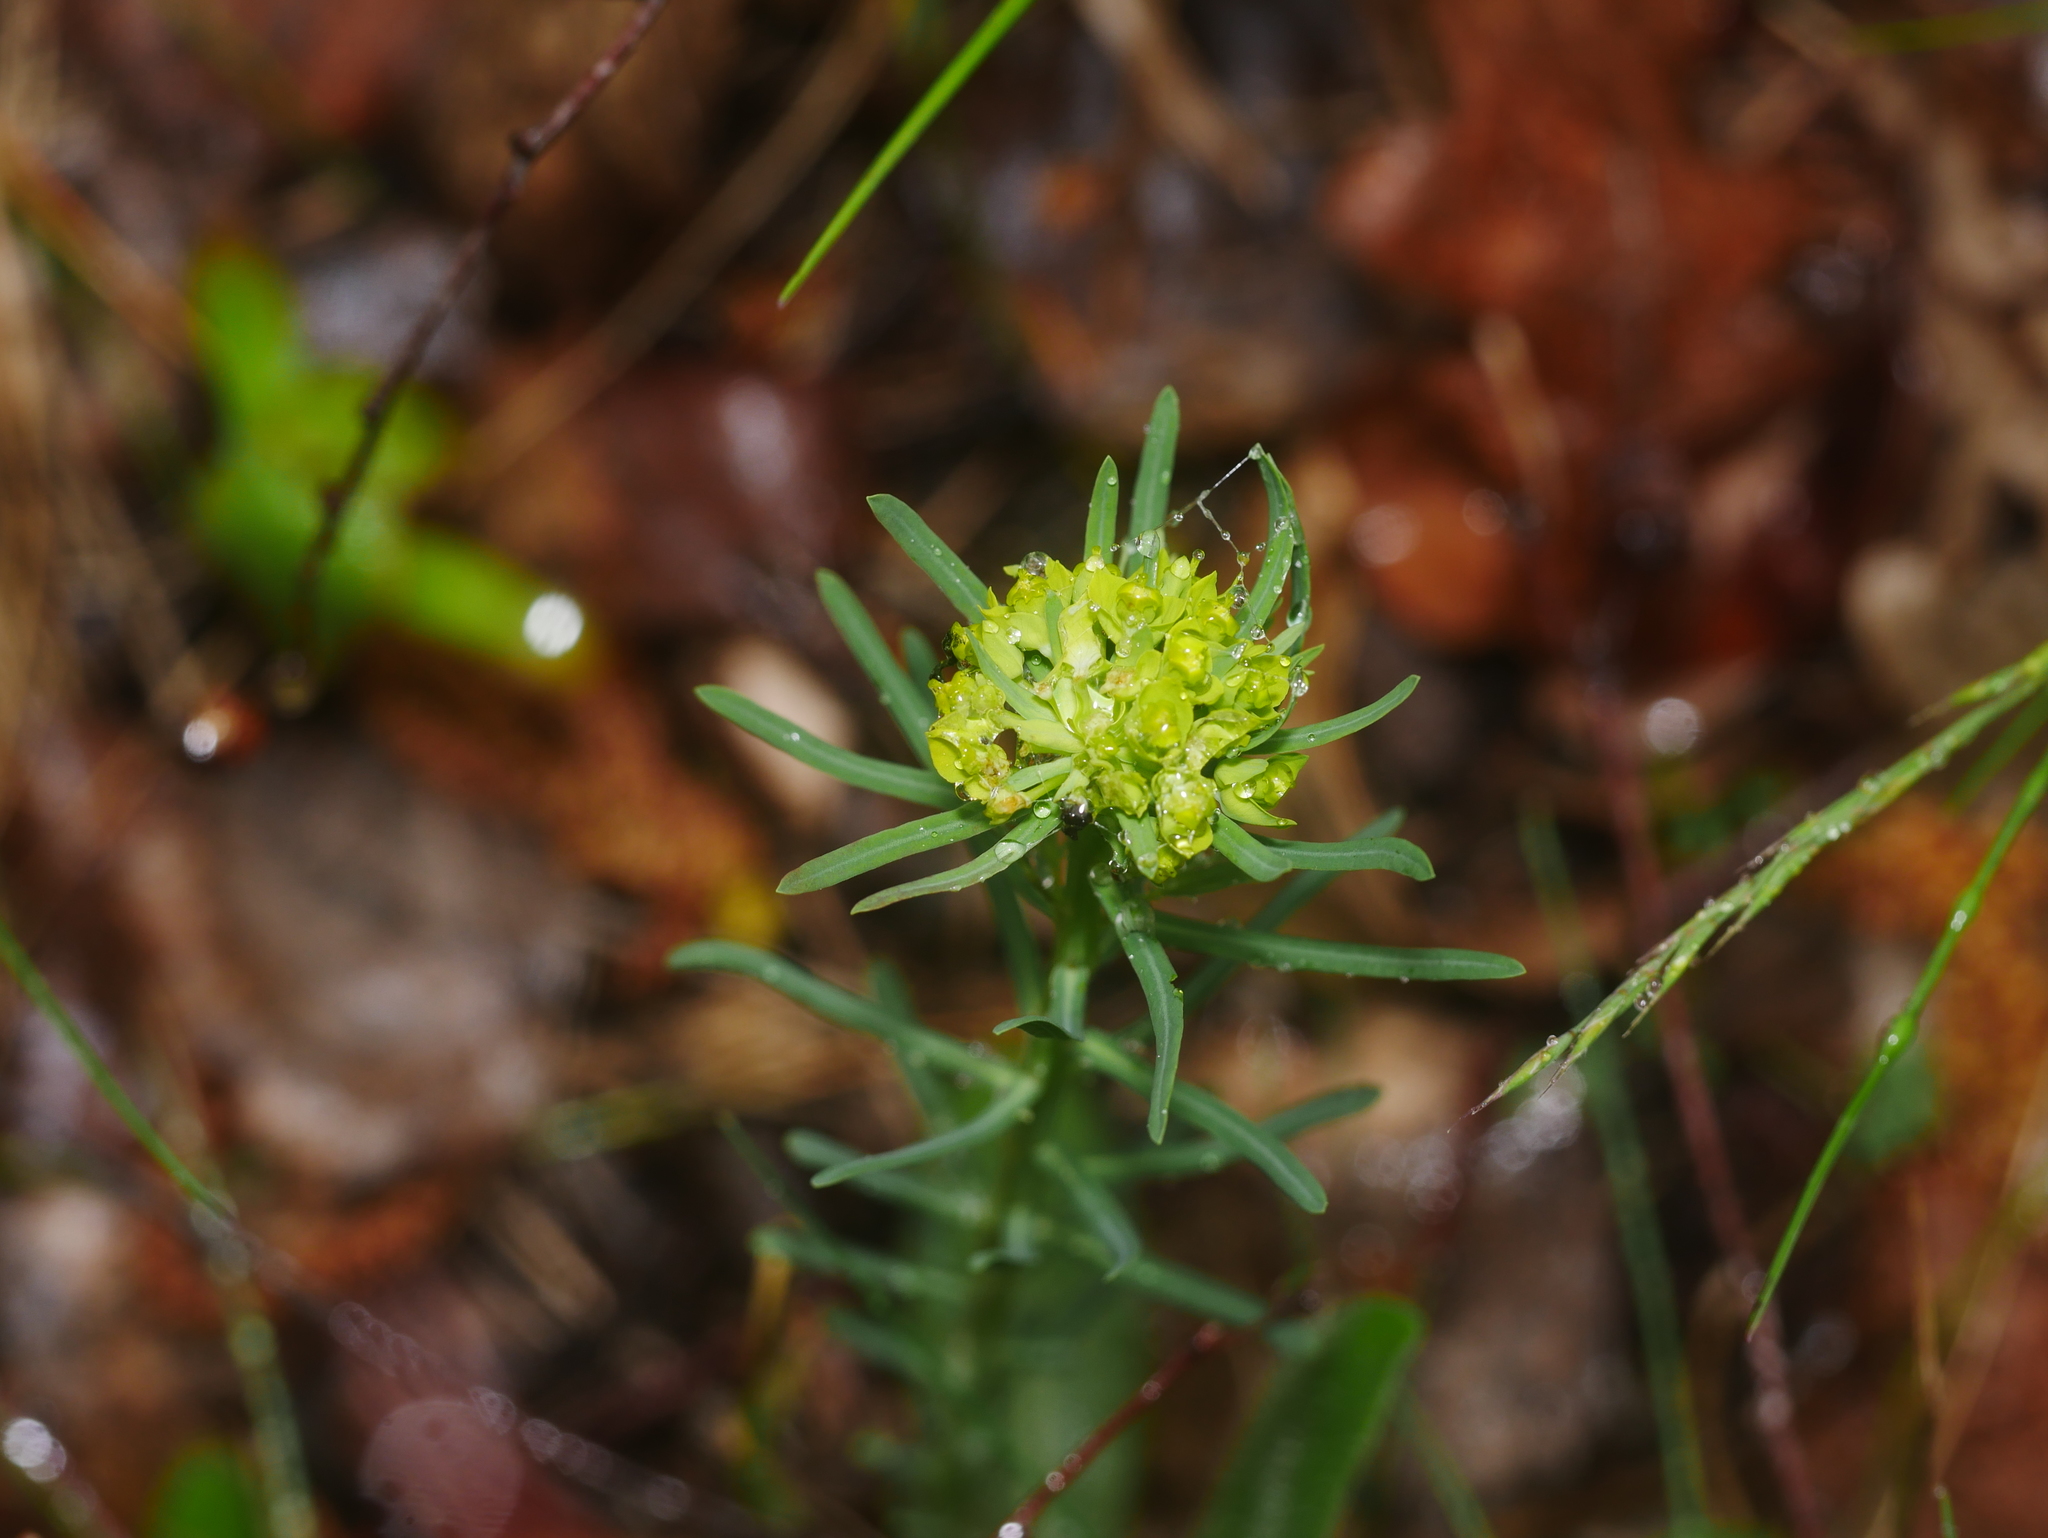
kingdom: Plantae
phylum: Tracheophyta
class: Magnoliopsida
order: Malpighiales
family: Euphorbiaceae
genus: Euphorbia
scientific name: Euphorbia cyparissias
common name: Cypress spurge
